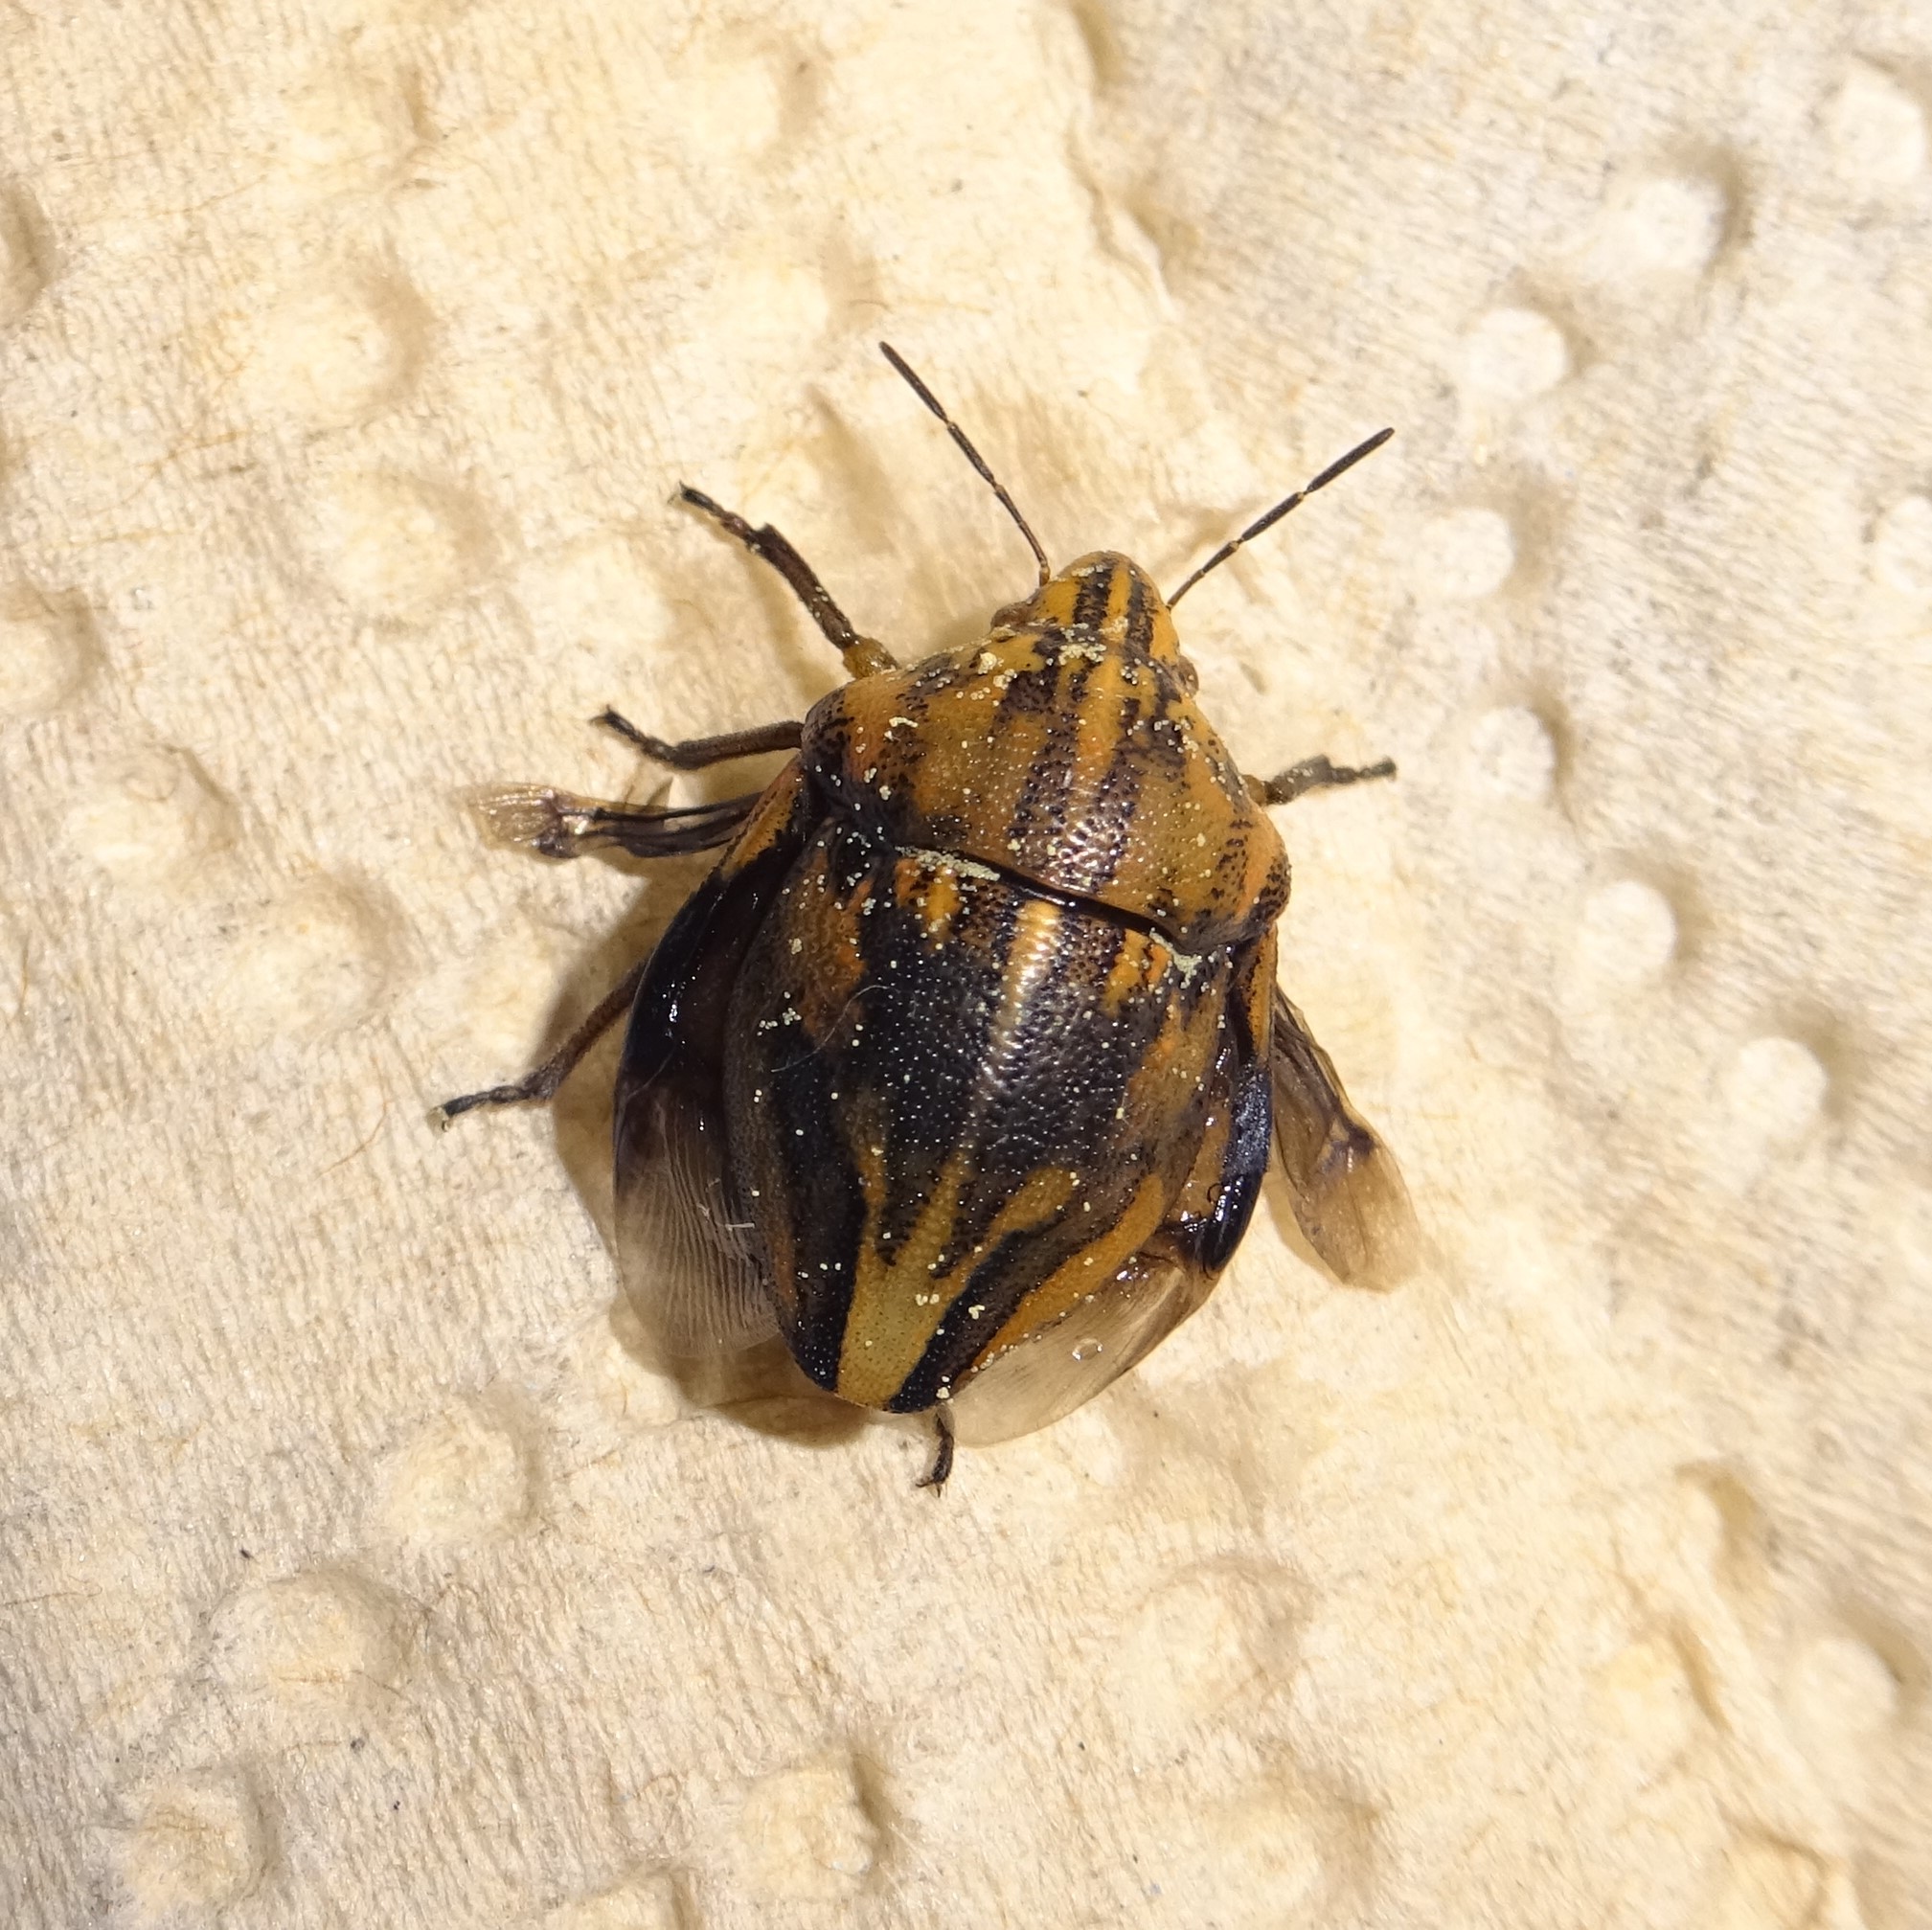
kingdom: Animalia
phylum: Arthropoda
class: Insecta
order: Hemiptera
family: Scutelleridae
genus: Odontotarsus
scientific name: Odontotarsus purpureolineatus
